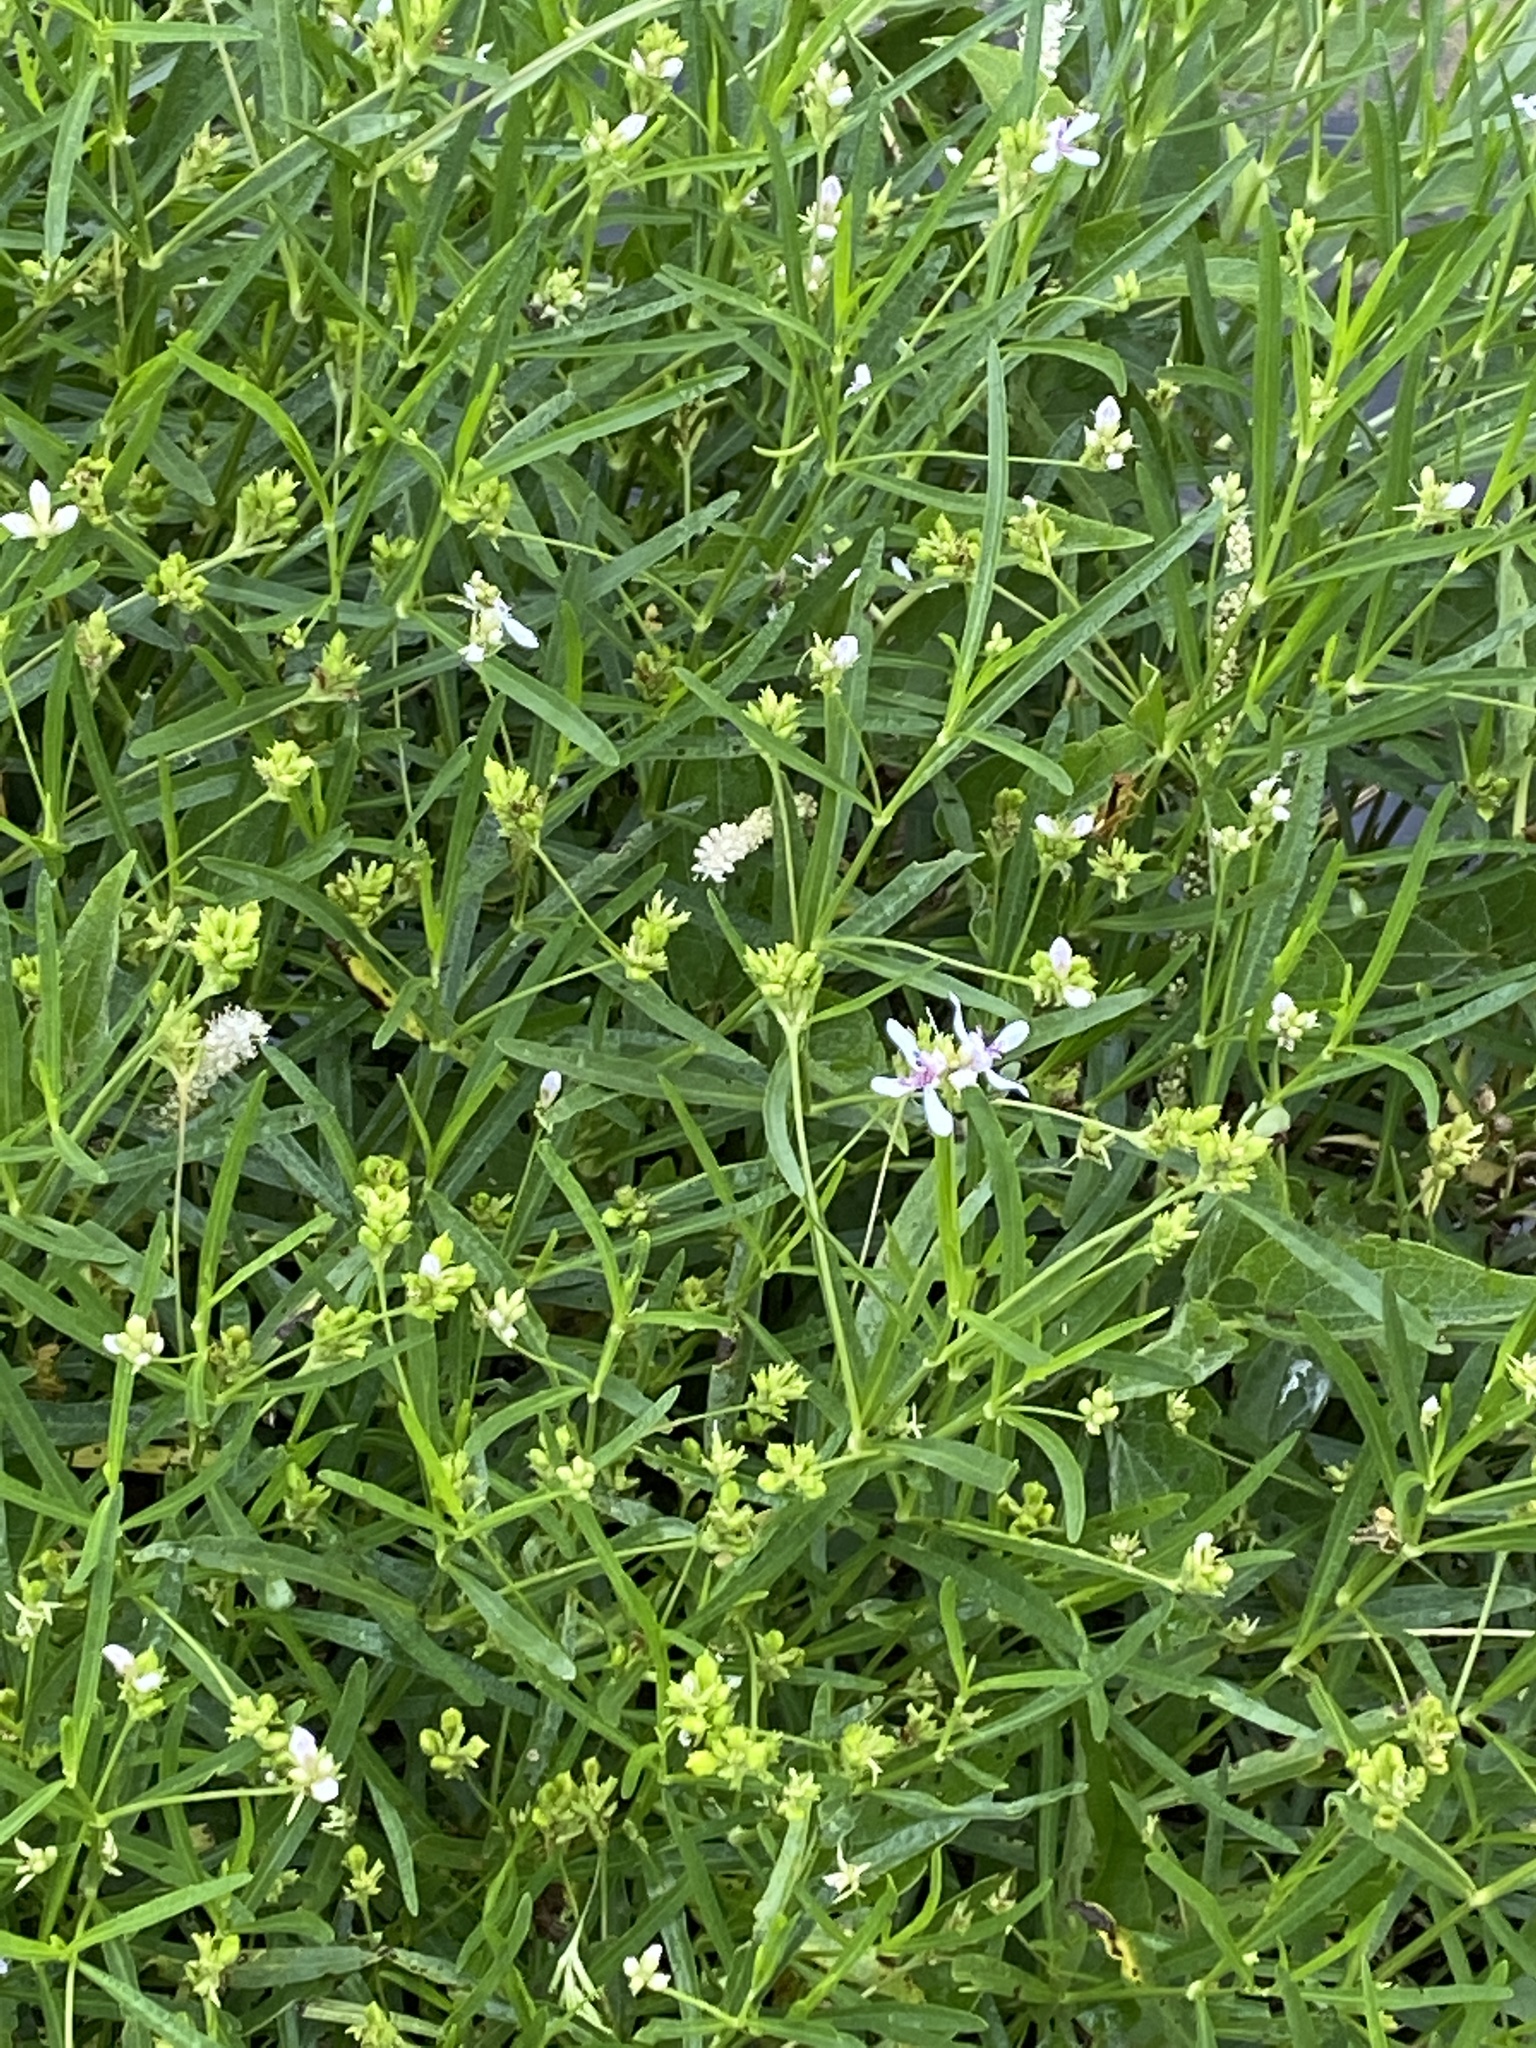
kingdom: Plantae
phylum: Tracheophyta
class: Magnoliopsida
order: Lamiales
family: Acanthaceae
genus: Dianthera
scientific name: Dianthera americana
